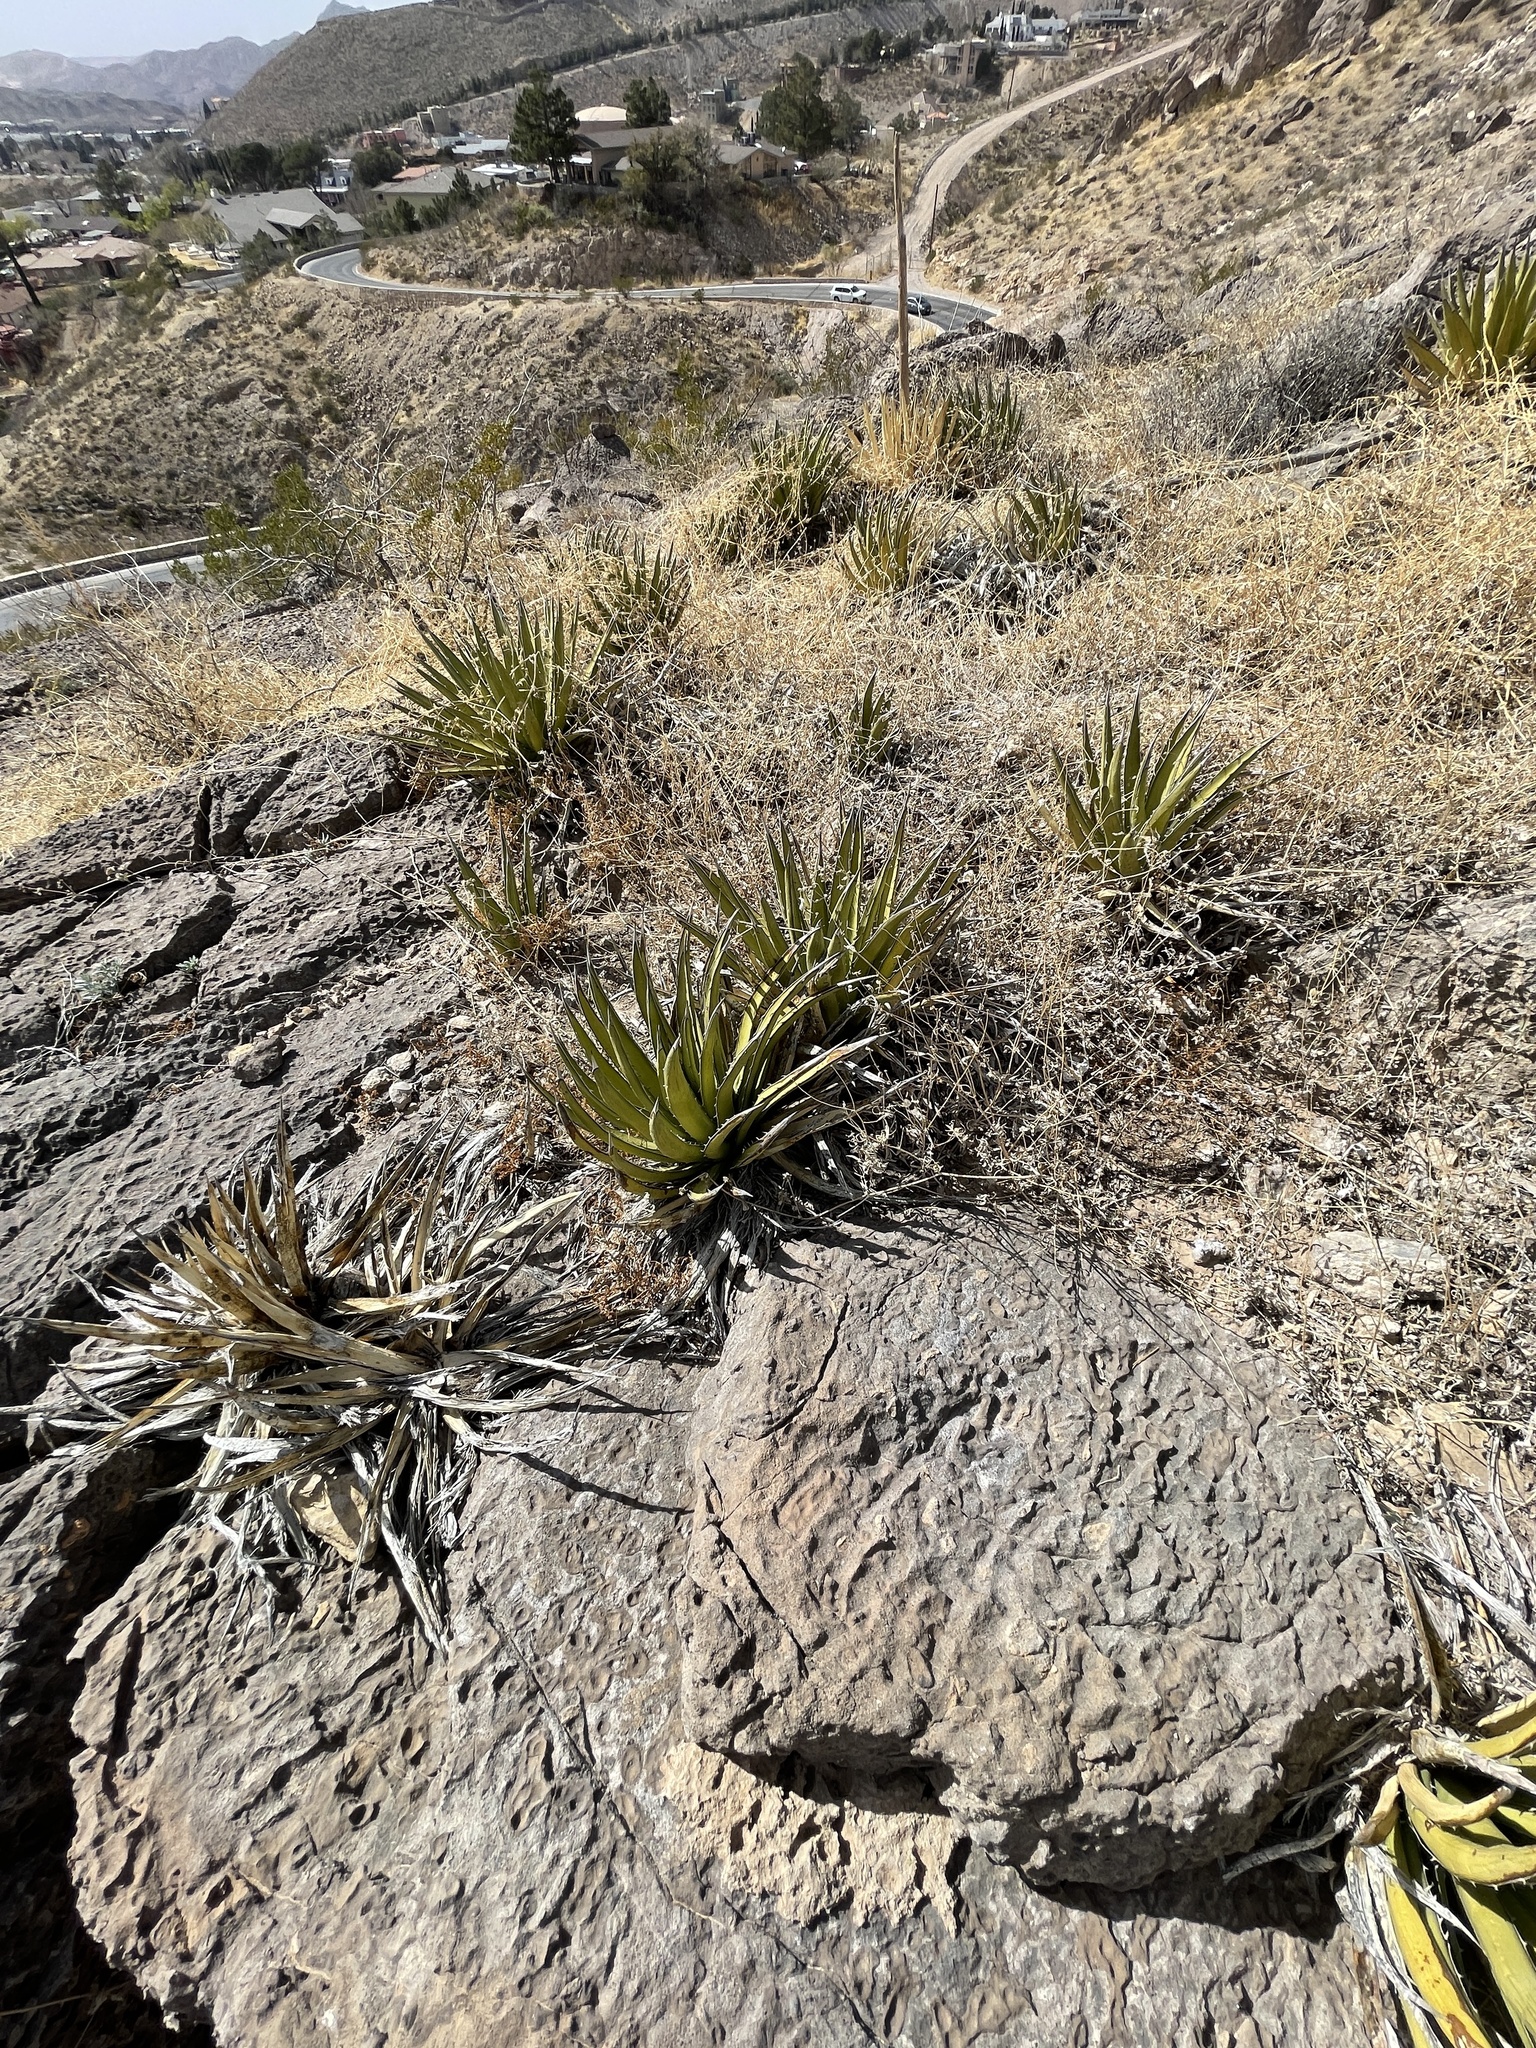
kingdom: Plantae
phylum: Tracheophyta
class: Liliopsida
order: Asparagales
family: Asparagaceae
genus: Agave
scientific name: Agave lechuguilla
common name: Lecheguilla agave
